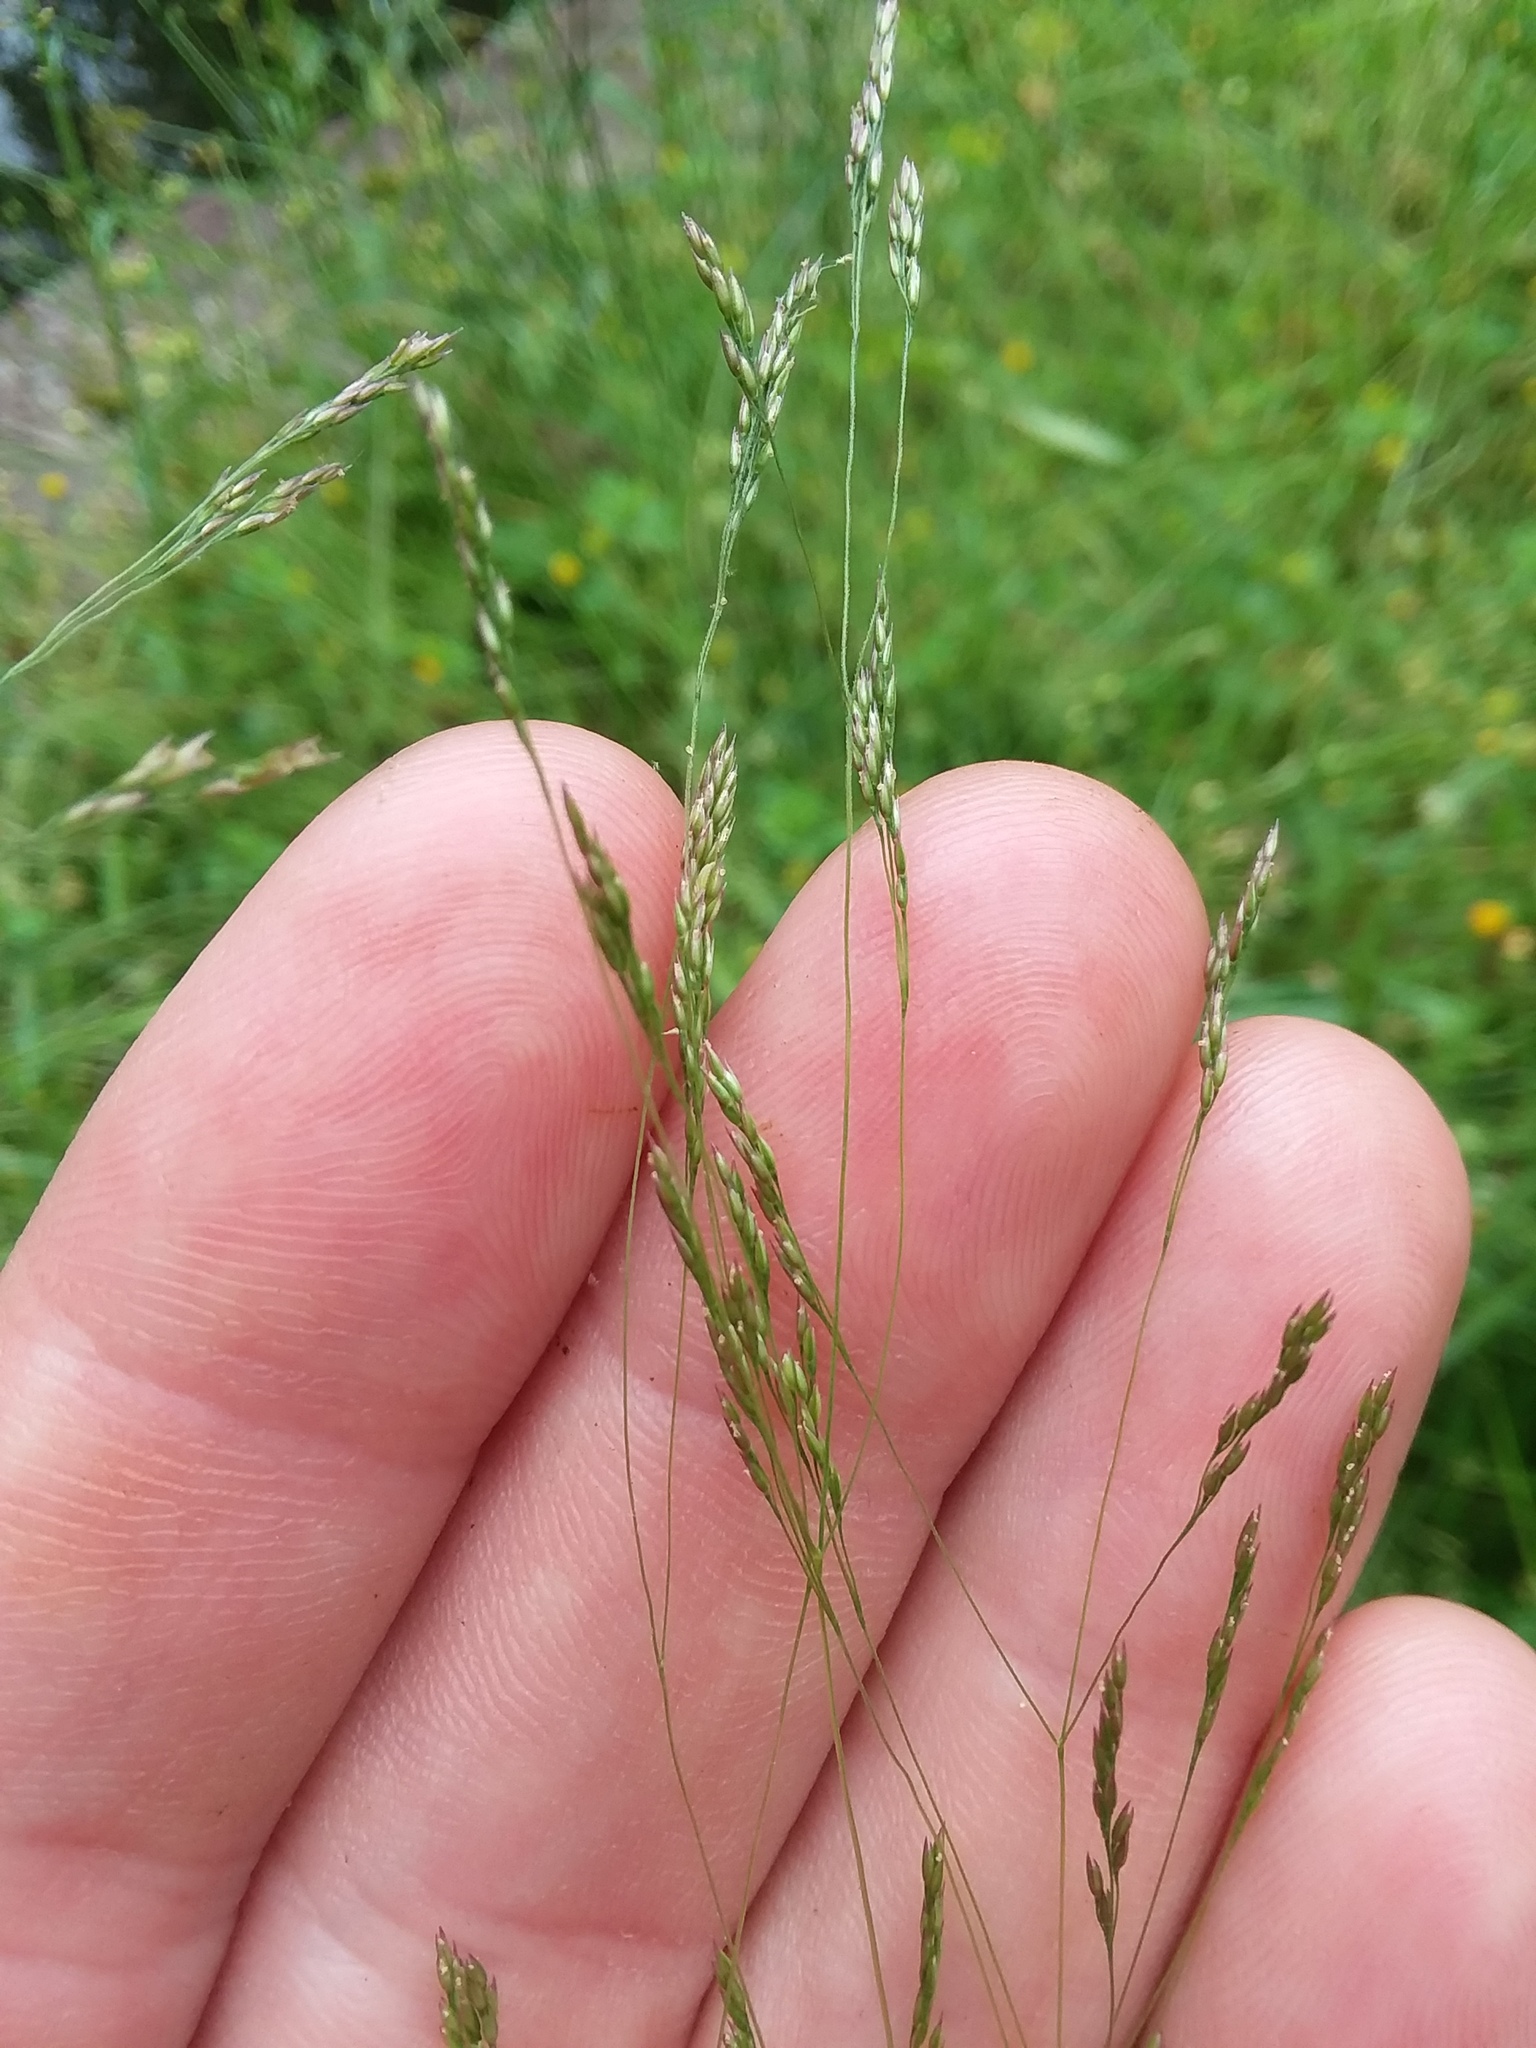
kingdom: Plantae
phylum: Tracheophyta
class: Liliopsida
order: Poales
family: Poaceae
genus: Agrostis
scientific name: Agrostis hyemalis
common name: Small bent
